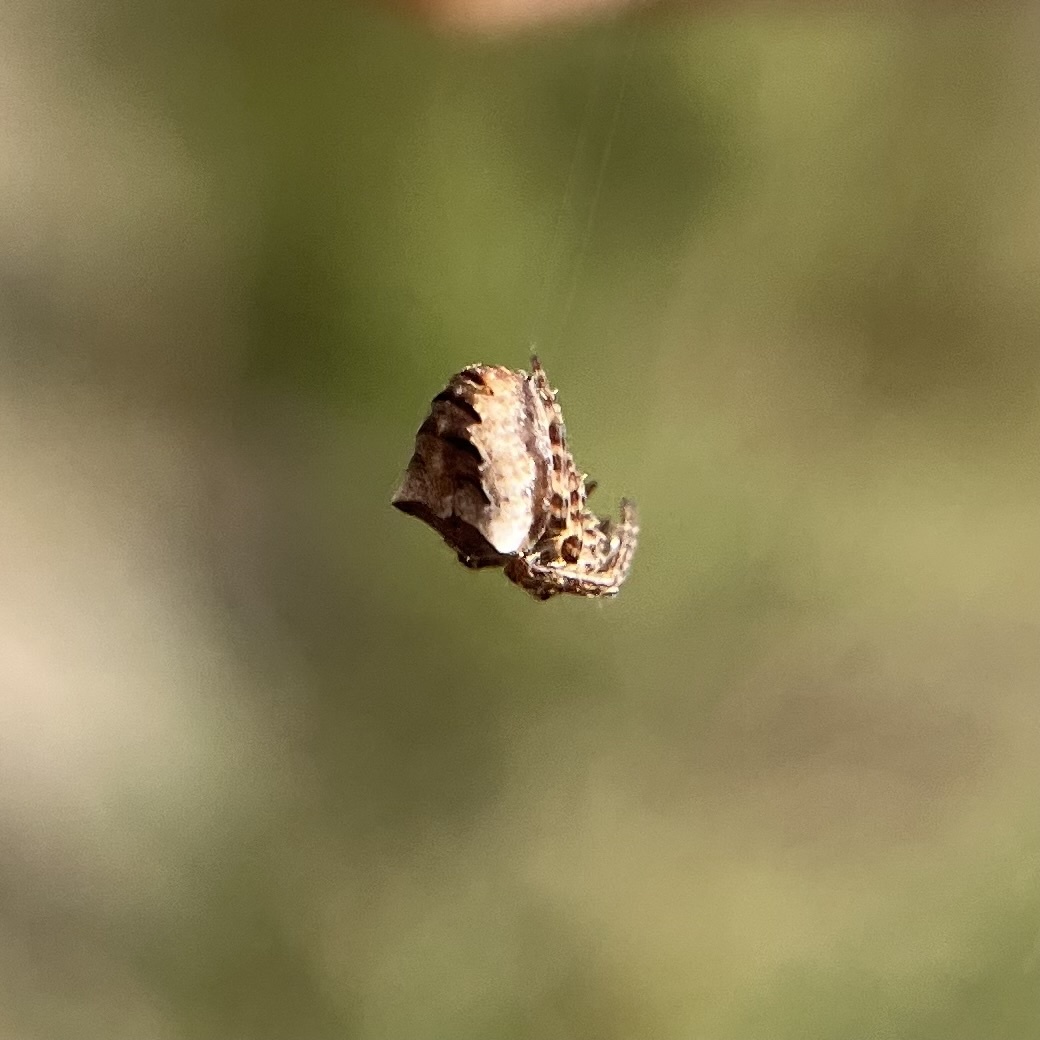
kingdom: Animalia
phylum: Arthropoda
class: Arachnida
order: Araneae
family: Araneidae
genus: Gibbaranea
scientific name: Gibbaranea bituberculata
